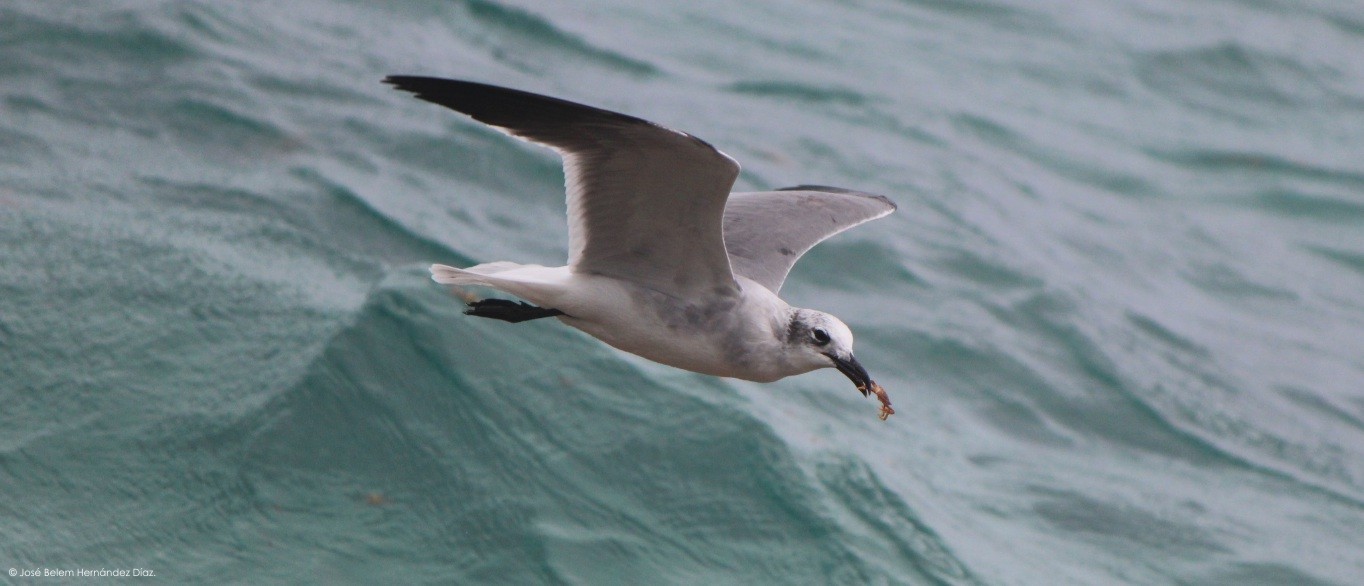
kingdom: Animalia
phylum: Chordata
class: Aves
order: Charadriiformes
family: Laridae
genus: Leucophaeus
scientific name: Leucophaeus atricilla
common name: Laughing gull
